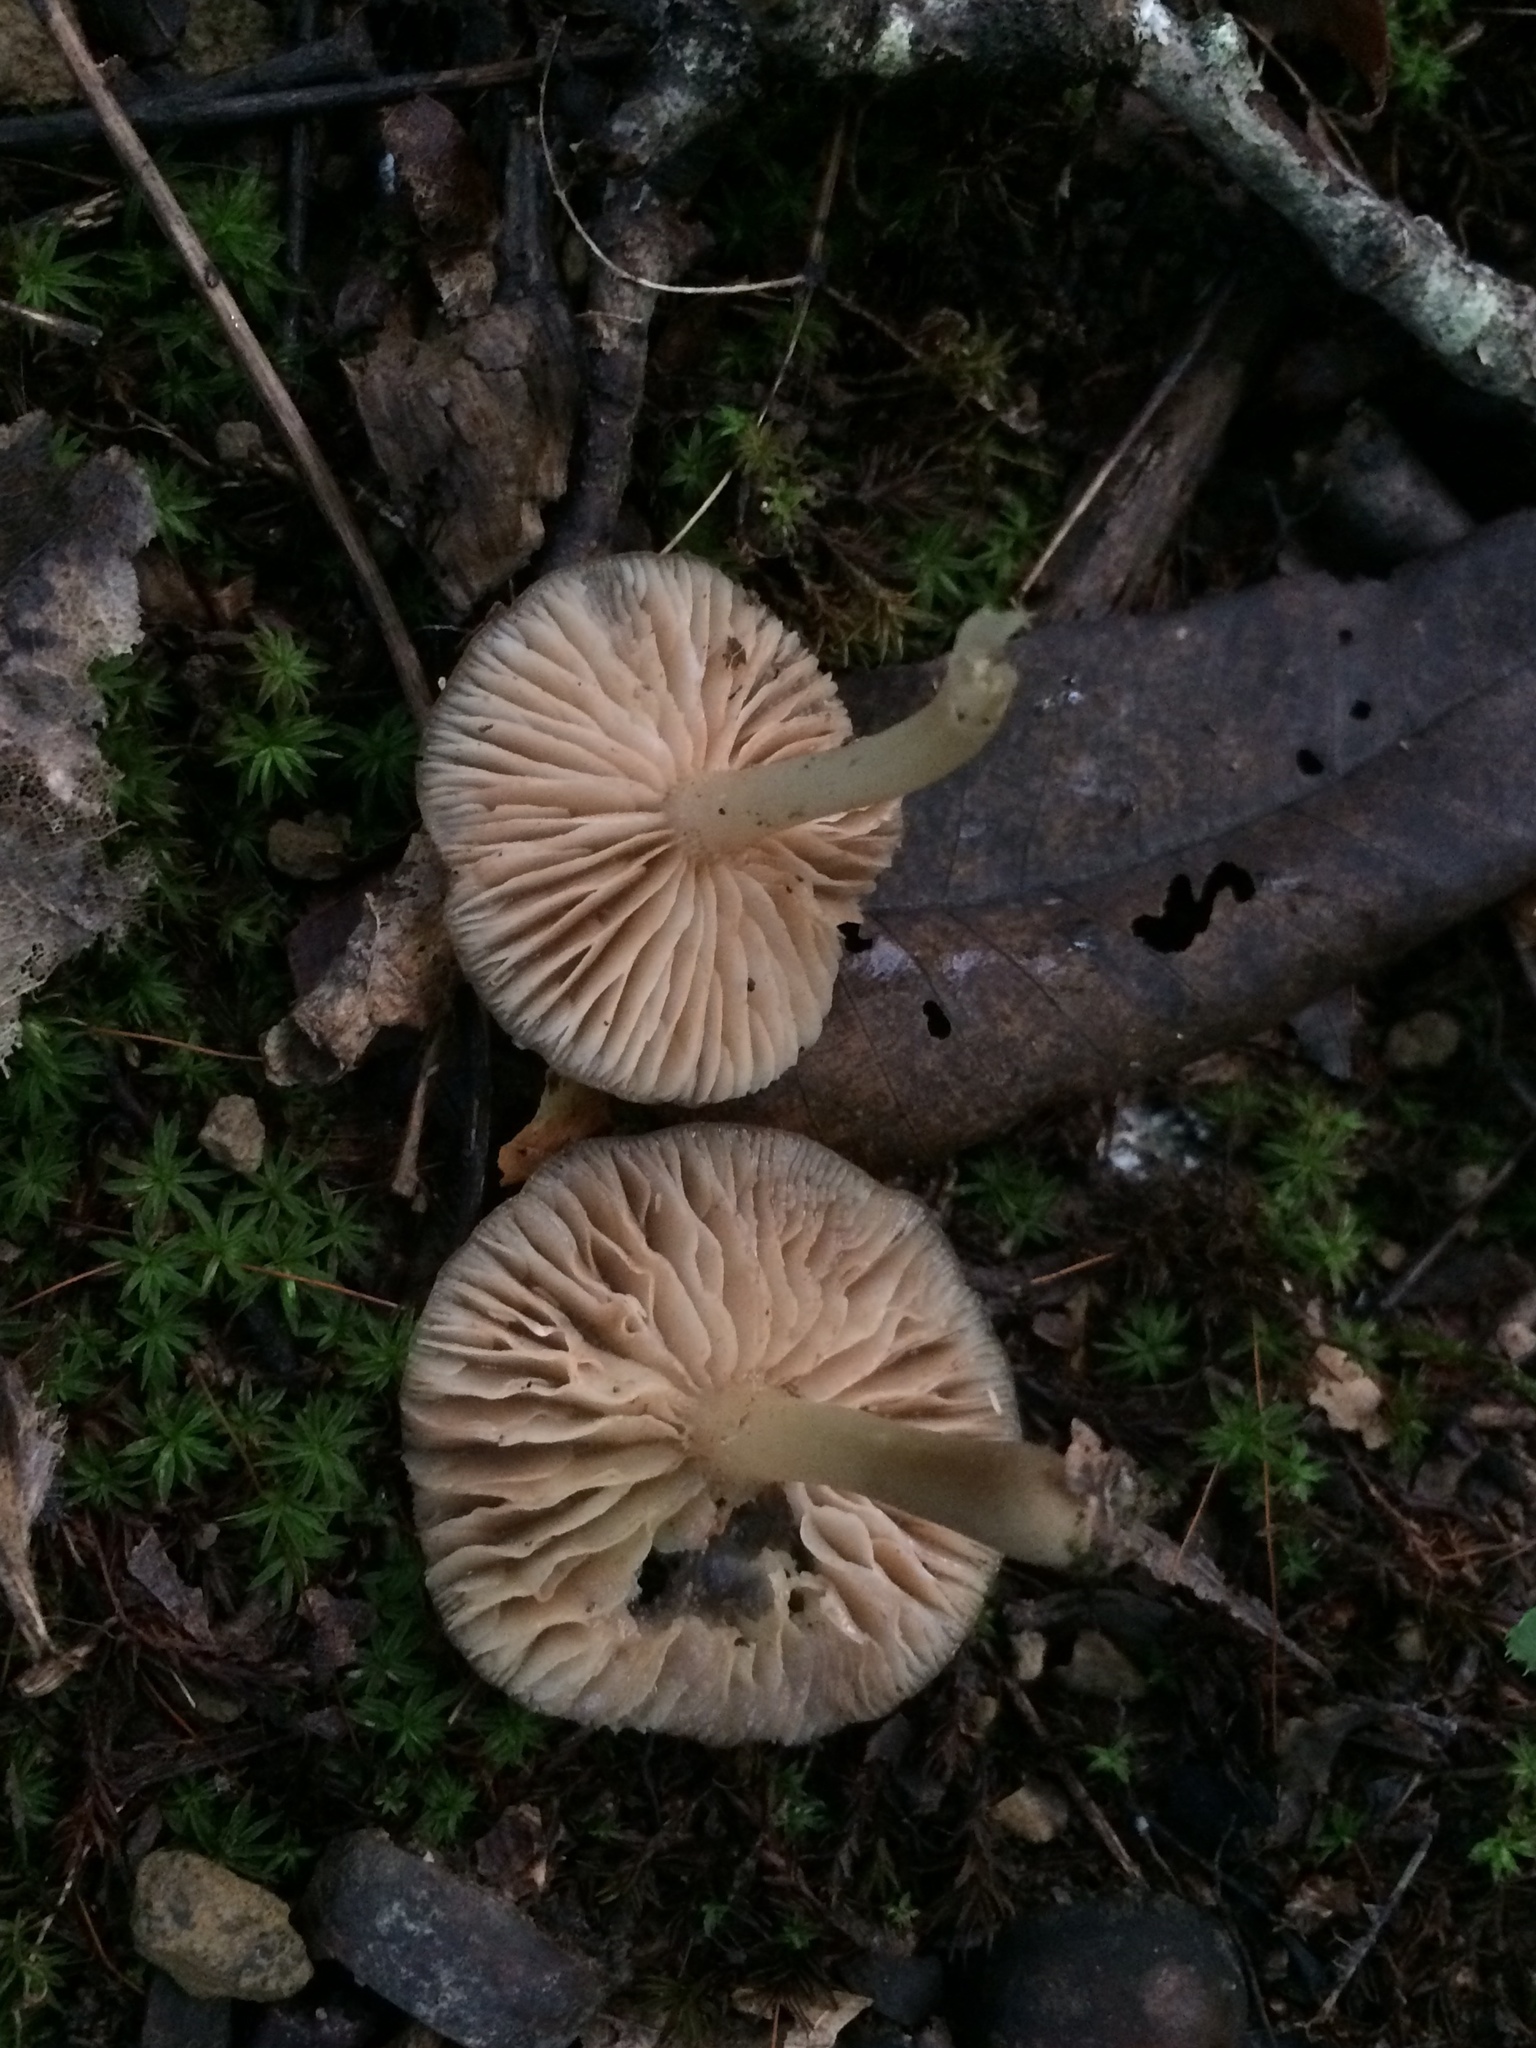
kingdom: Fungi
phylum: Basidiomycota
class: Agaricomycetes
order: Agaricales
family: Entolomataceae
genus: Entoloma
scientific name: Entoloma carolinianum
